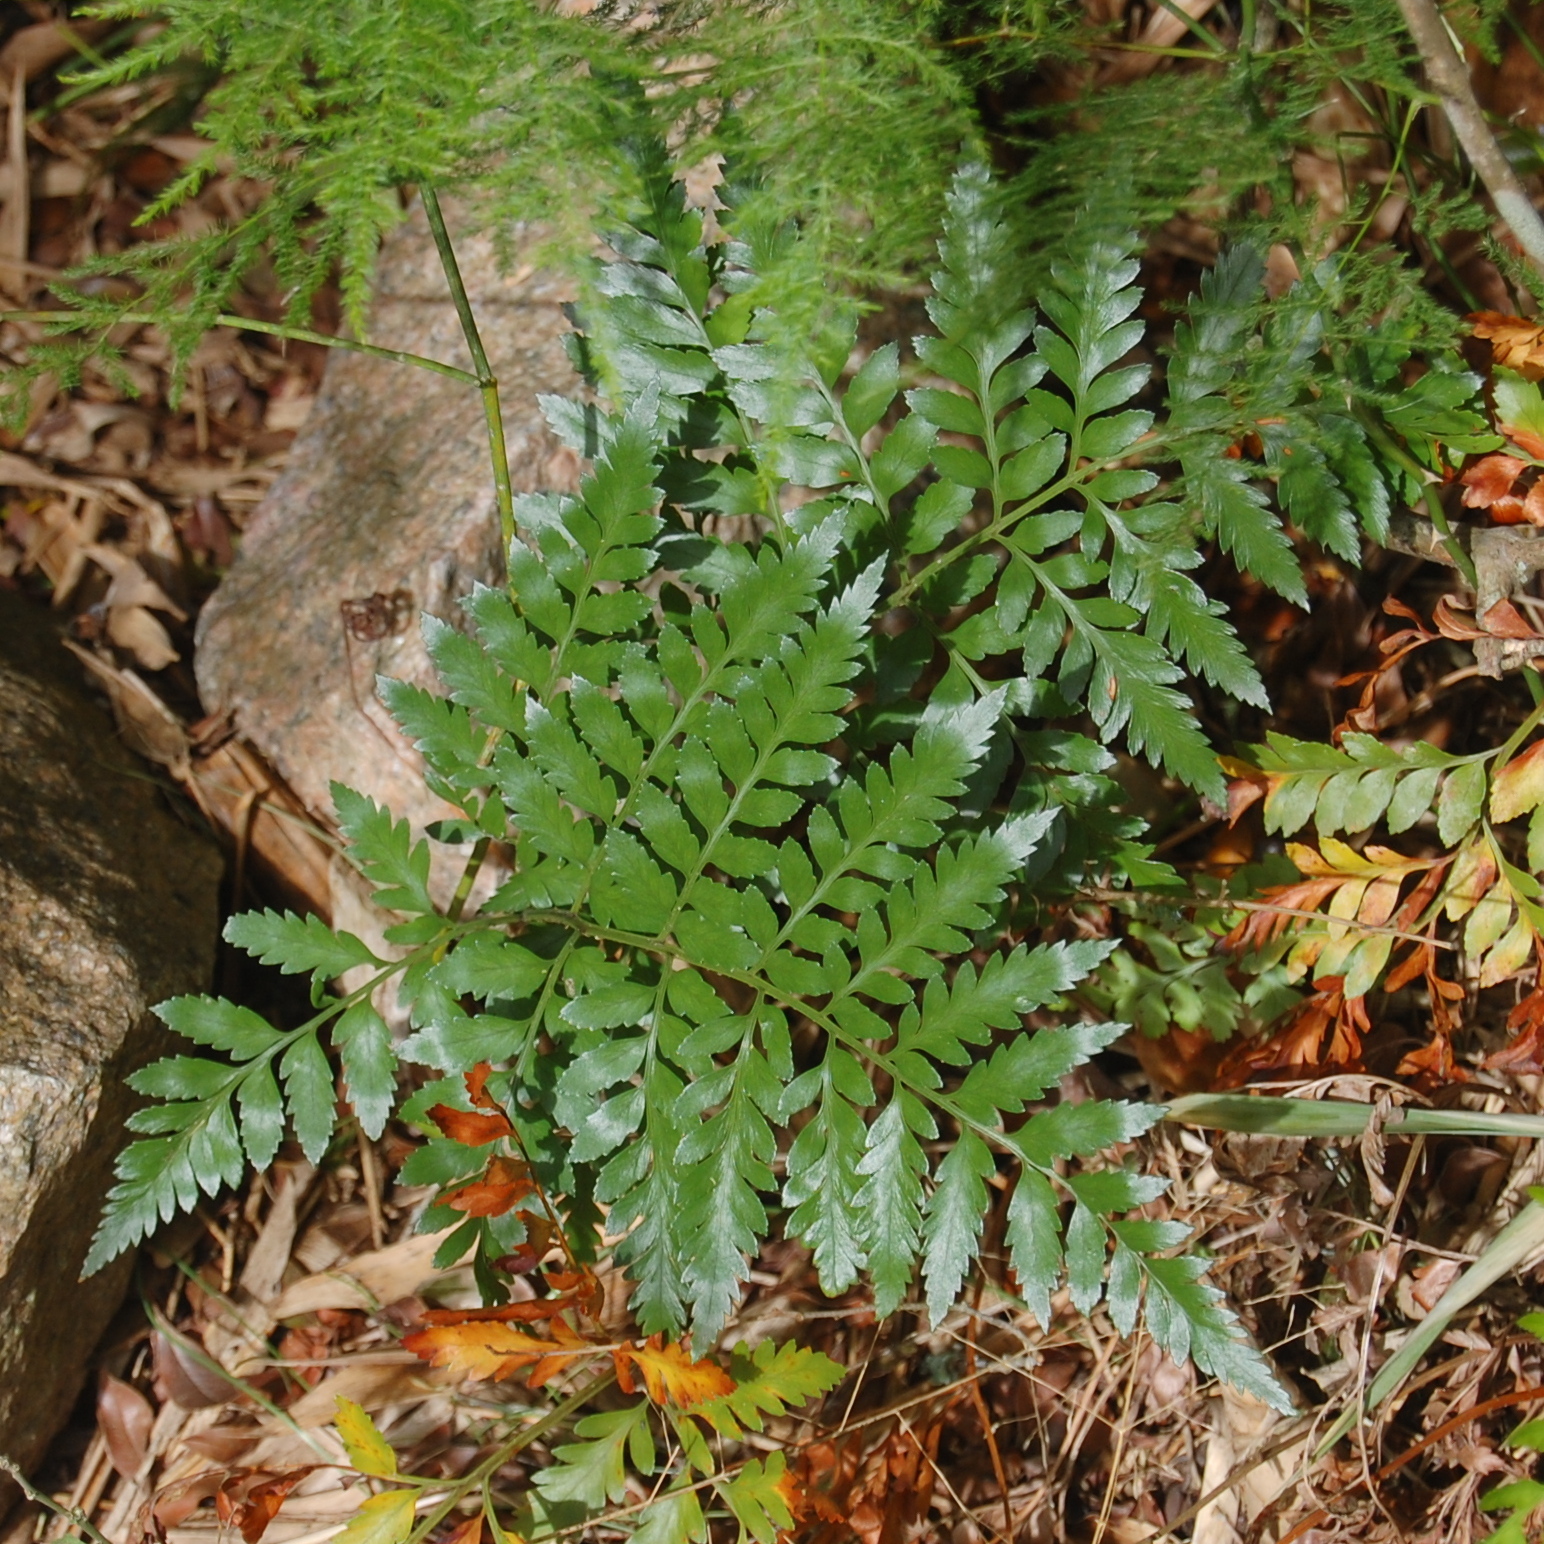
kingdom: Plantae
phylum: Tracheophyta
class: Polypodiopsida
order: Polypodiales
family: Dryopteridaceae
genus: Rumohra
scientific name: Rumohra adiantiformis
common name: Leather fern
